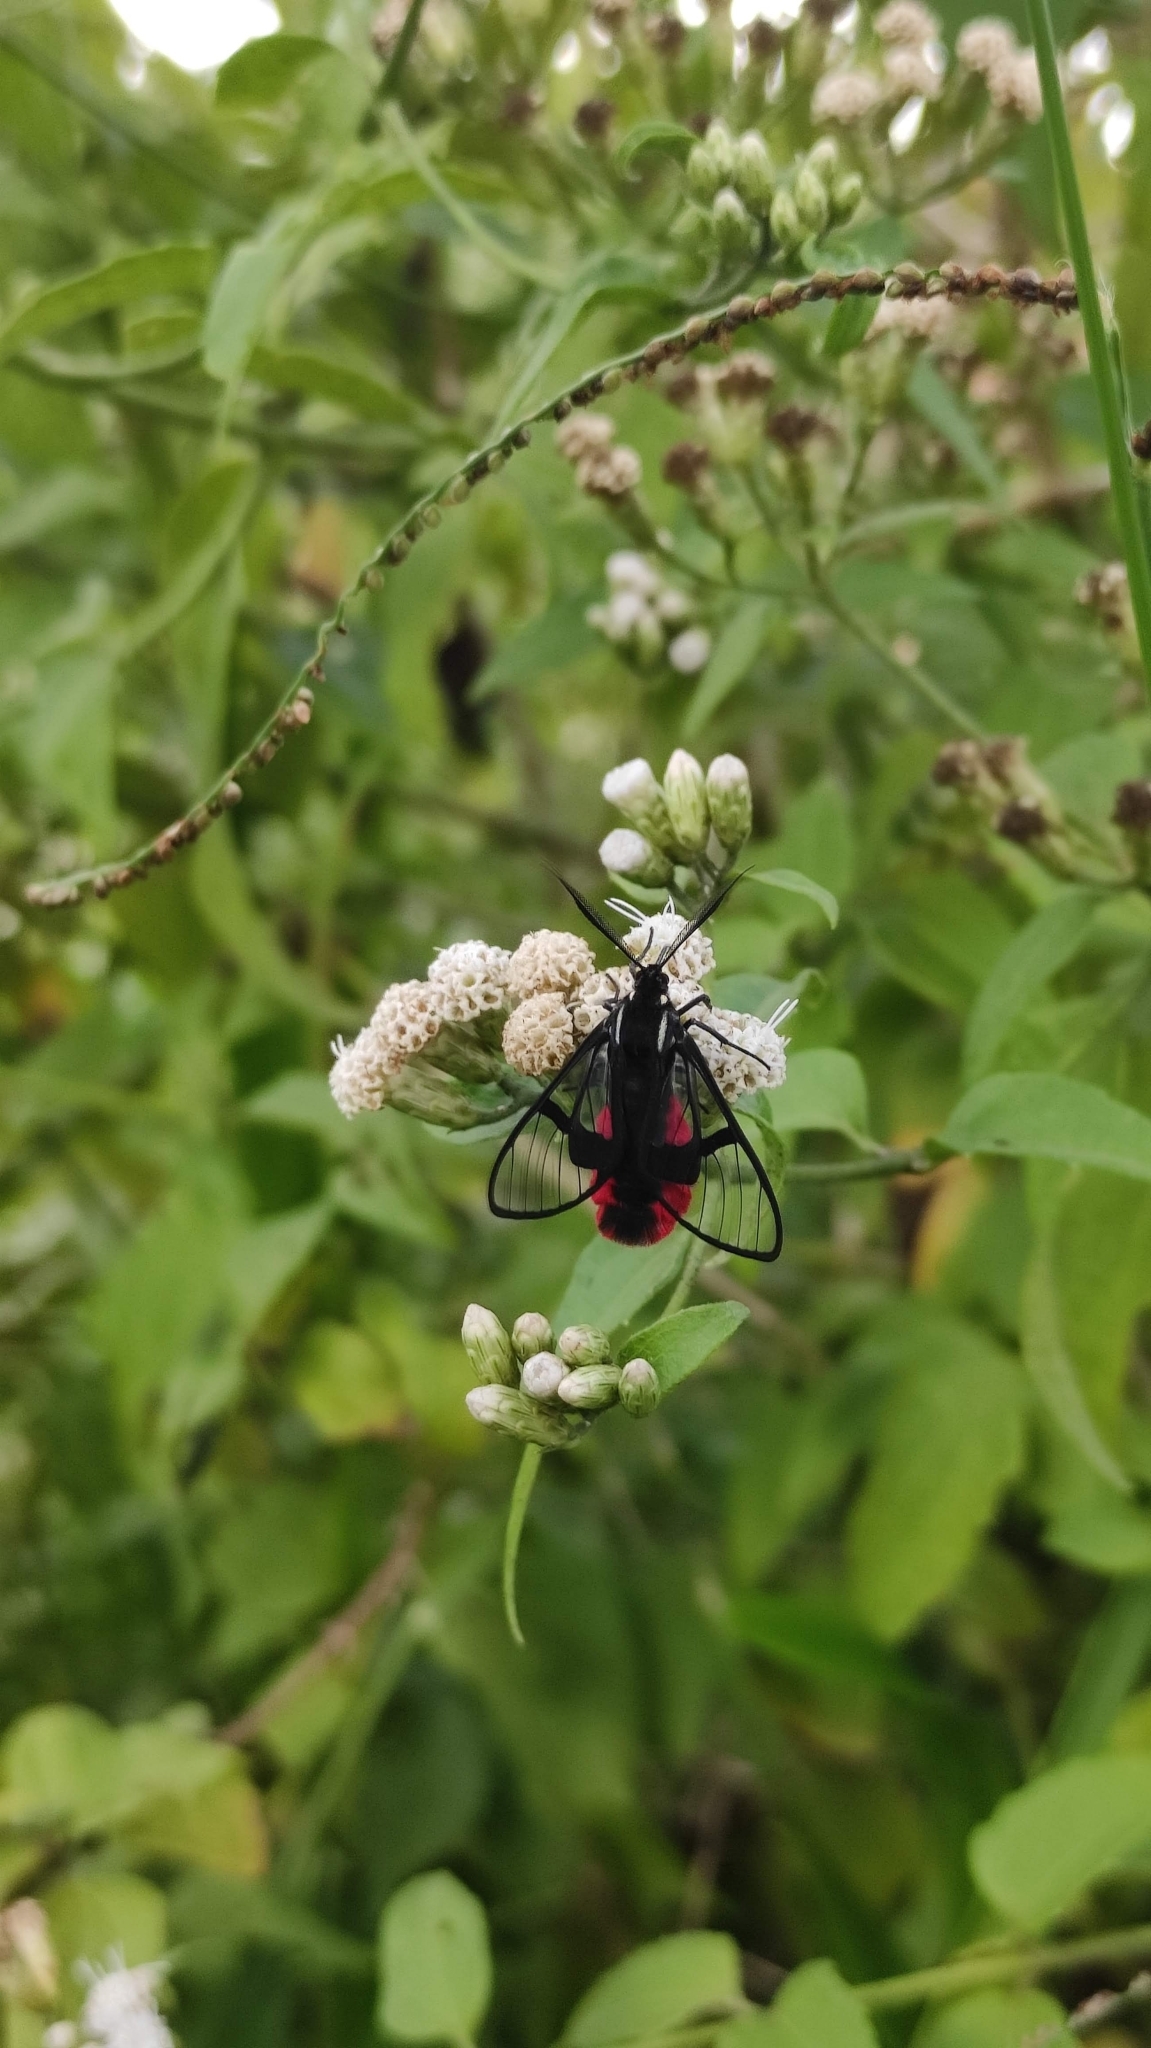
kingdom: Animalia
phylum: Arthropoda
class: Insecta
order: Lepidoptera
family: Erebidae
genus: Dinia
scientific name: Dinia eagrus
